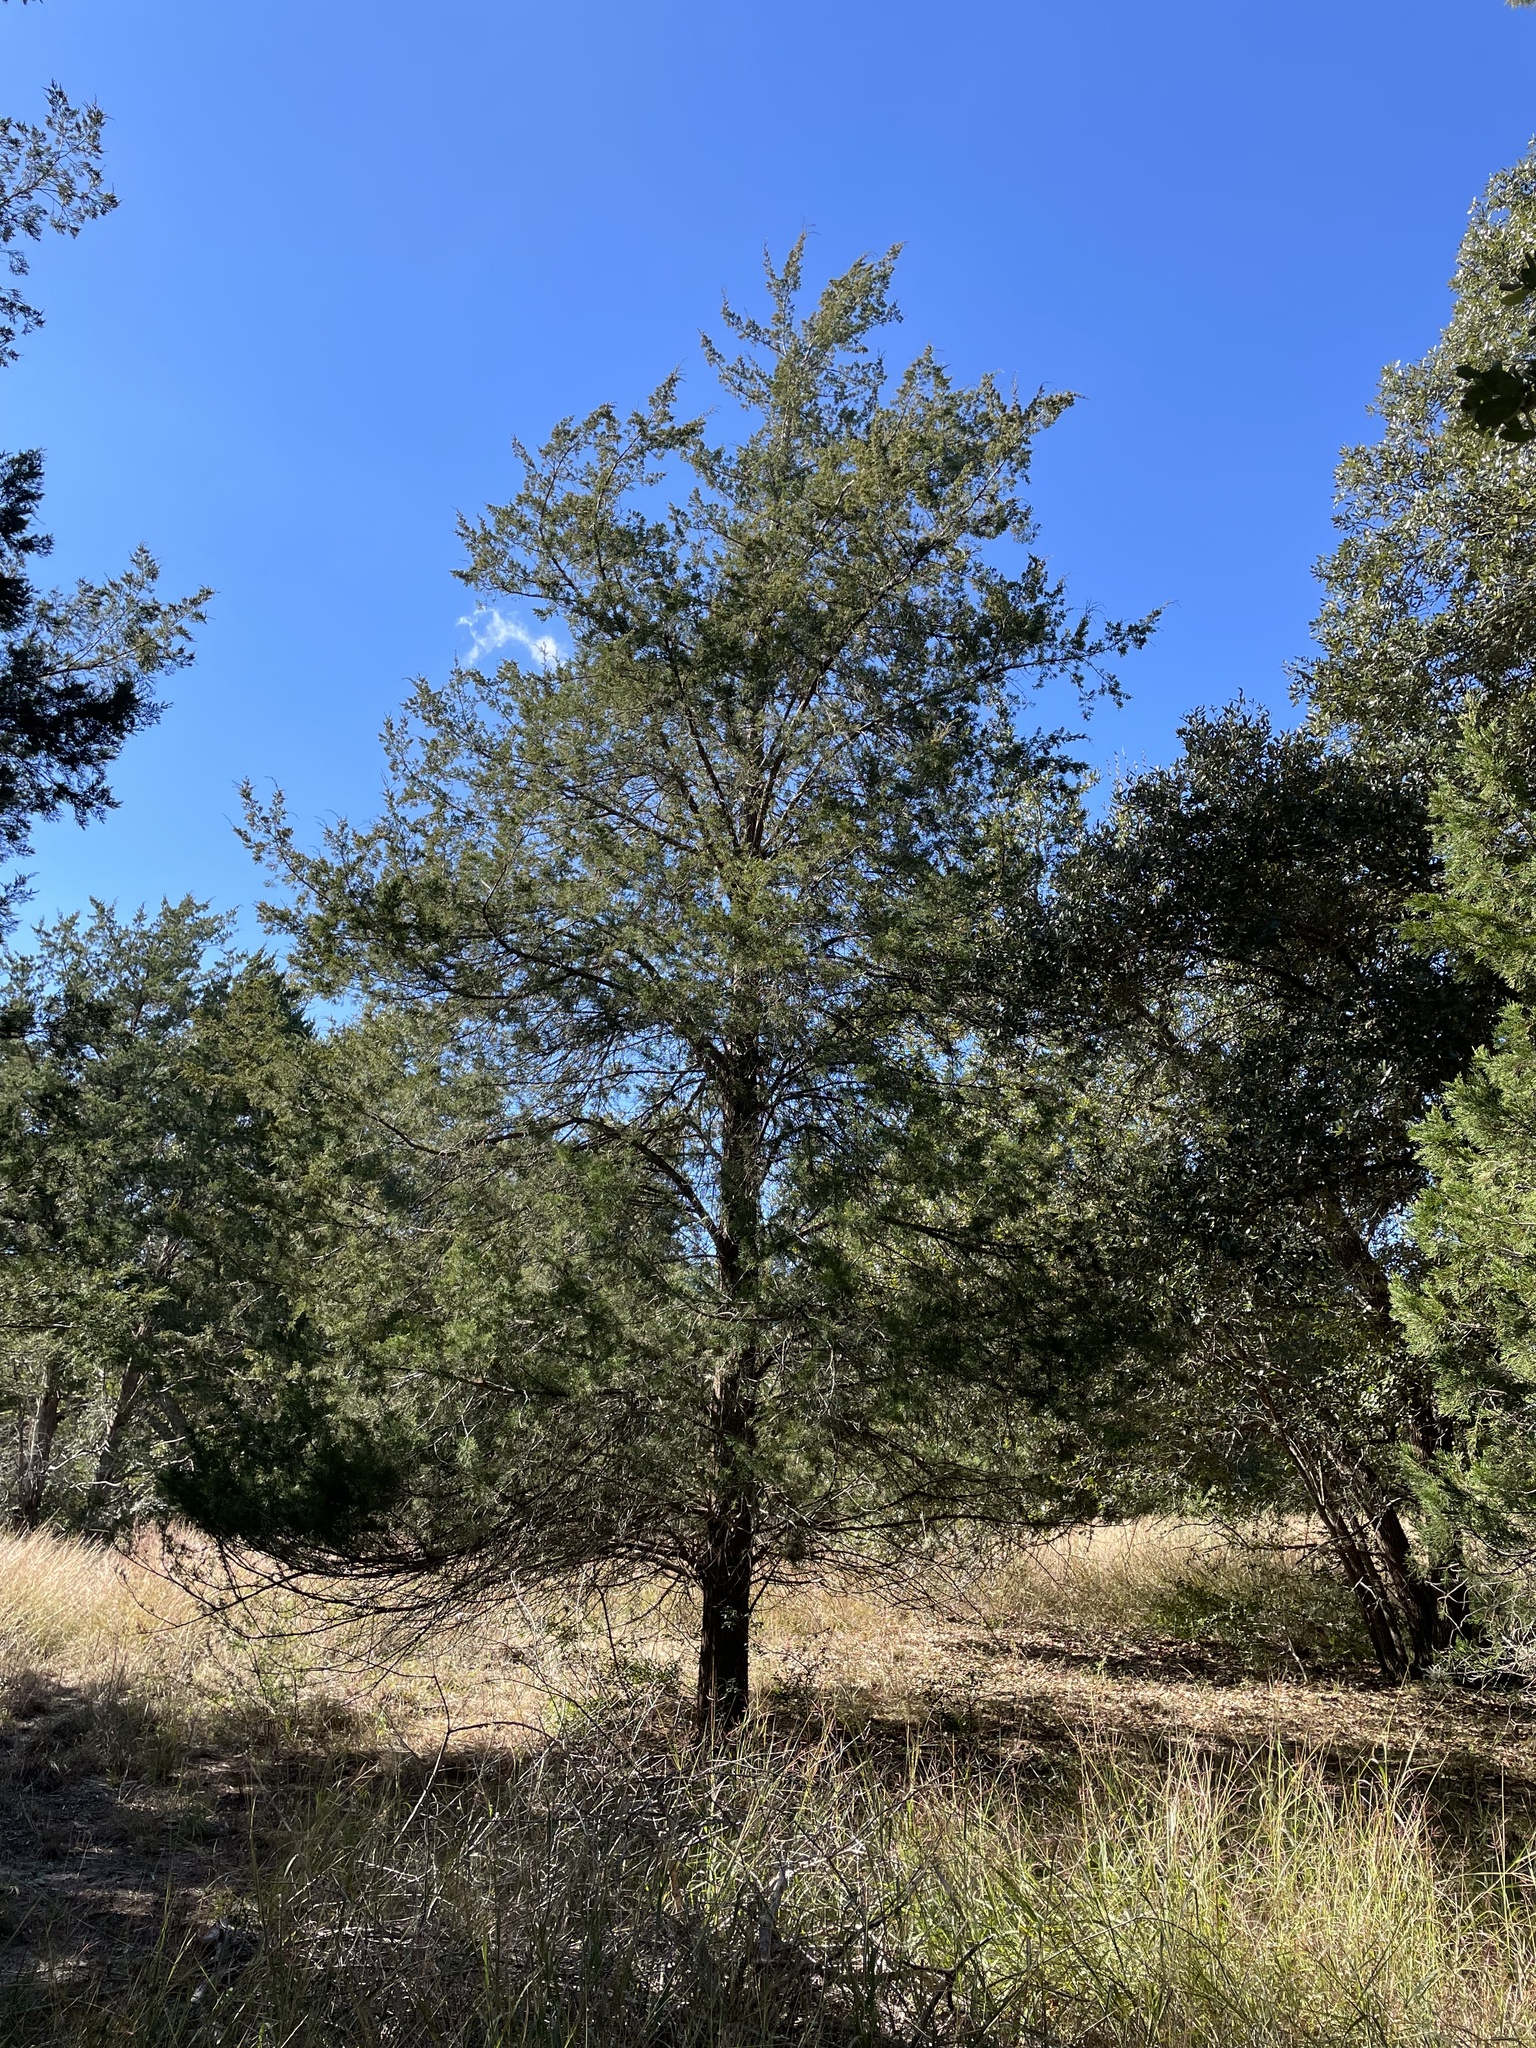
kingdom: Plantae
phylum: Tracheophyta
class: Pinopsida
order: Pinales
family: Cupressaceae
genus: Juniperus
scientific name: Juniperus virginiana
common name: Red juniper
